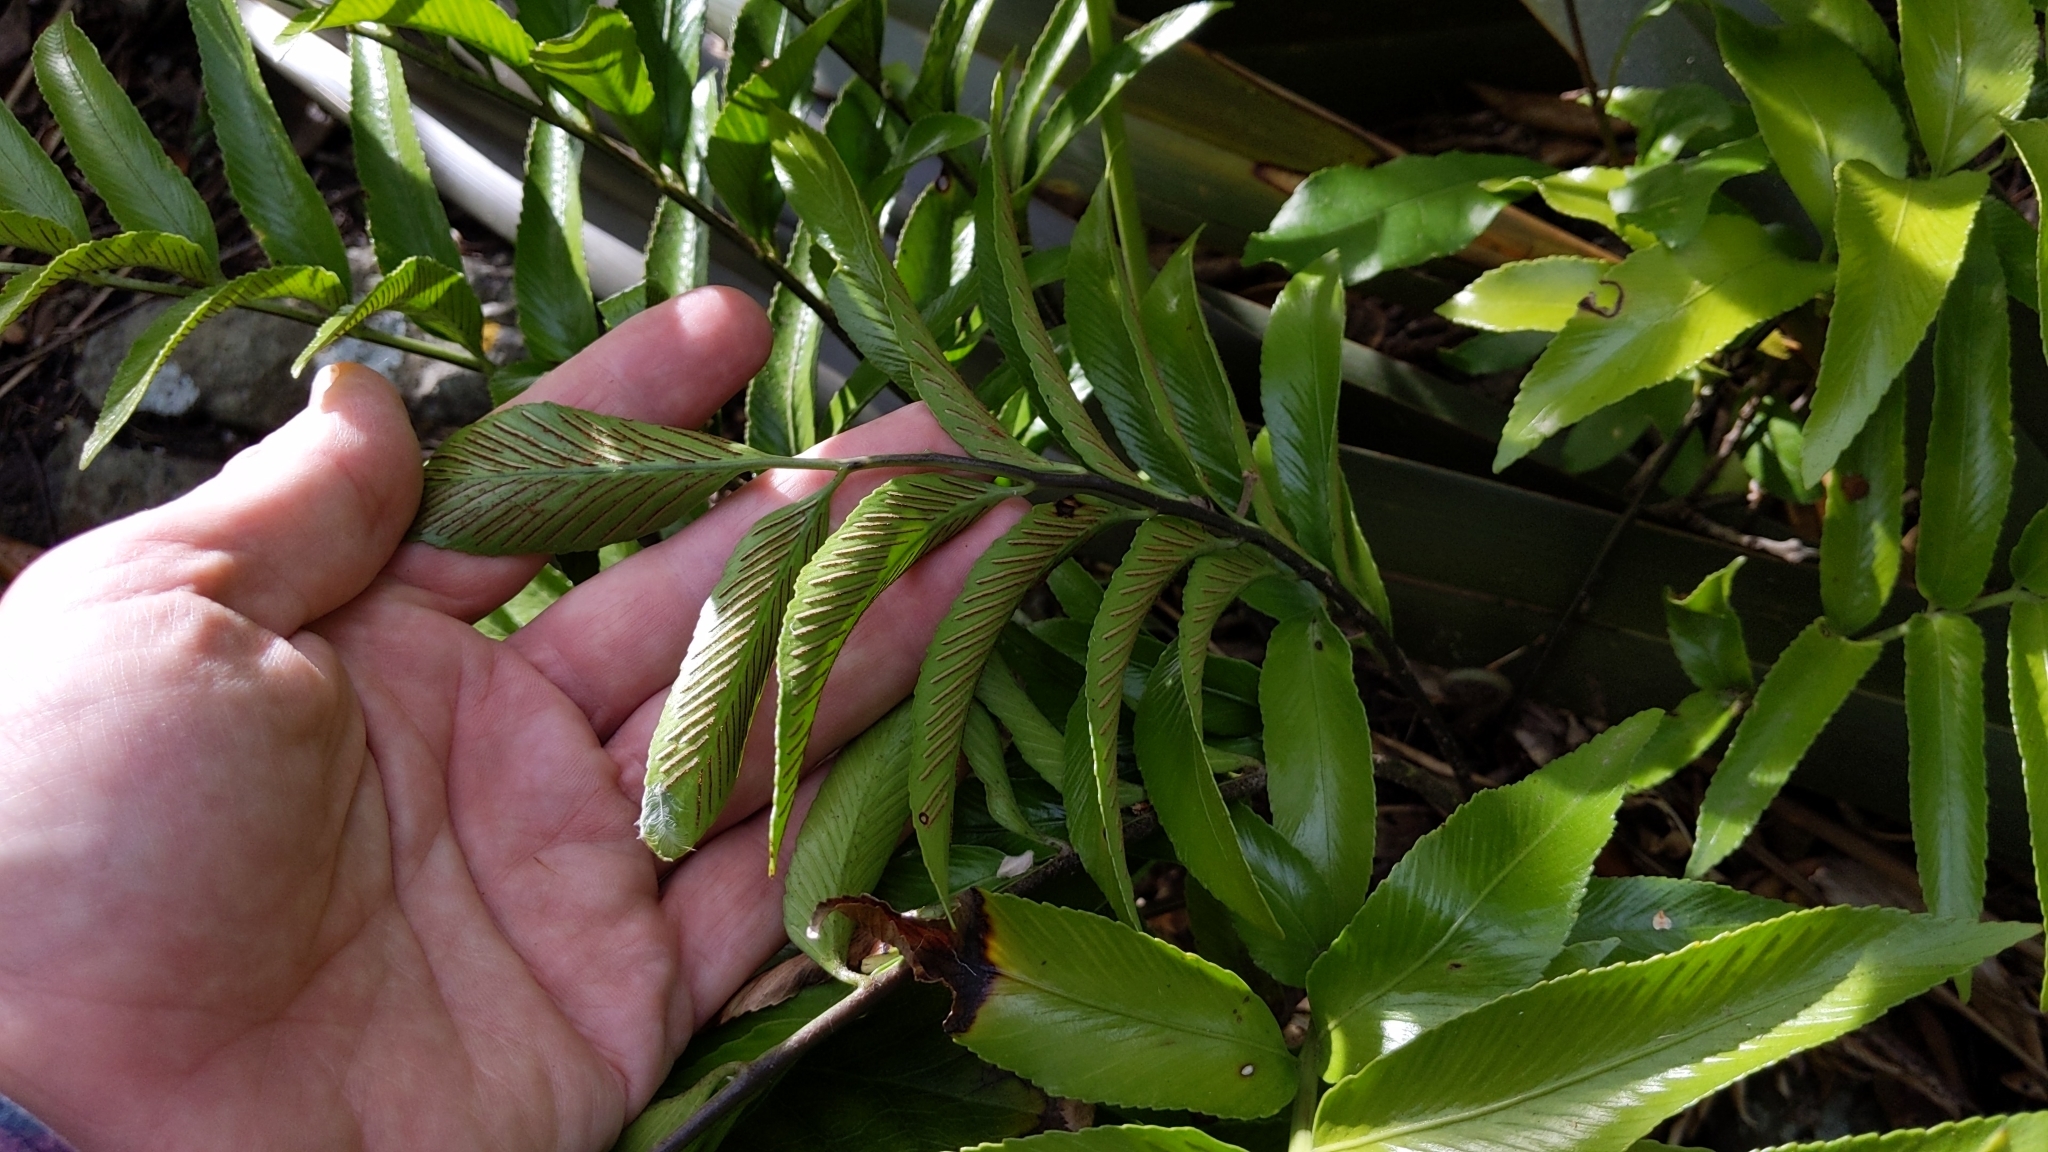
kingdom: Plantae
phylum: Tracheophyta
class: Polypodiopsida
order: Polypodiales
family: Aspleniaceae
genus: Asplenium
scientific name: Asplenium oblongifolium
